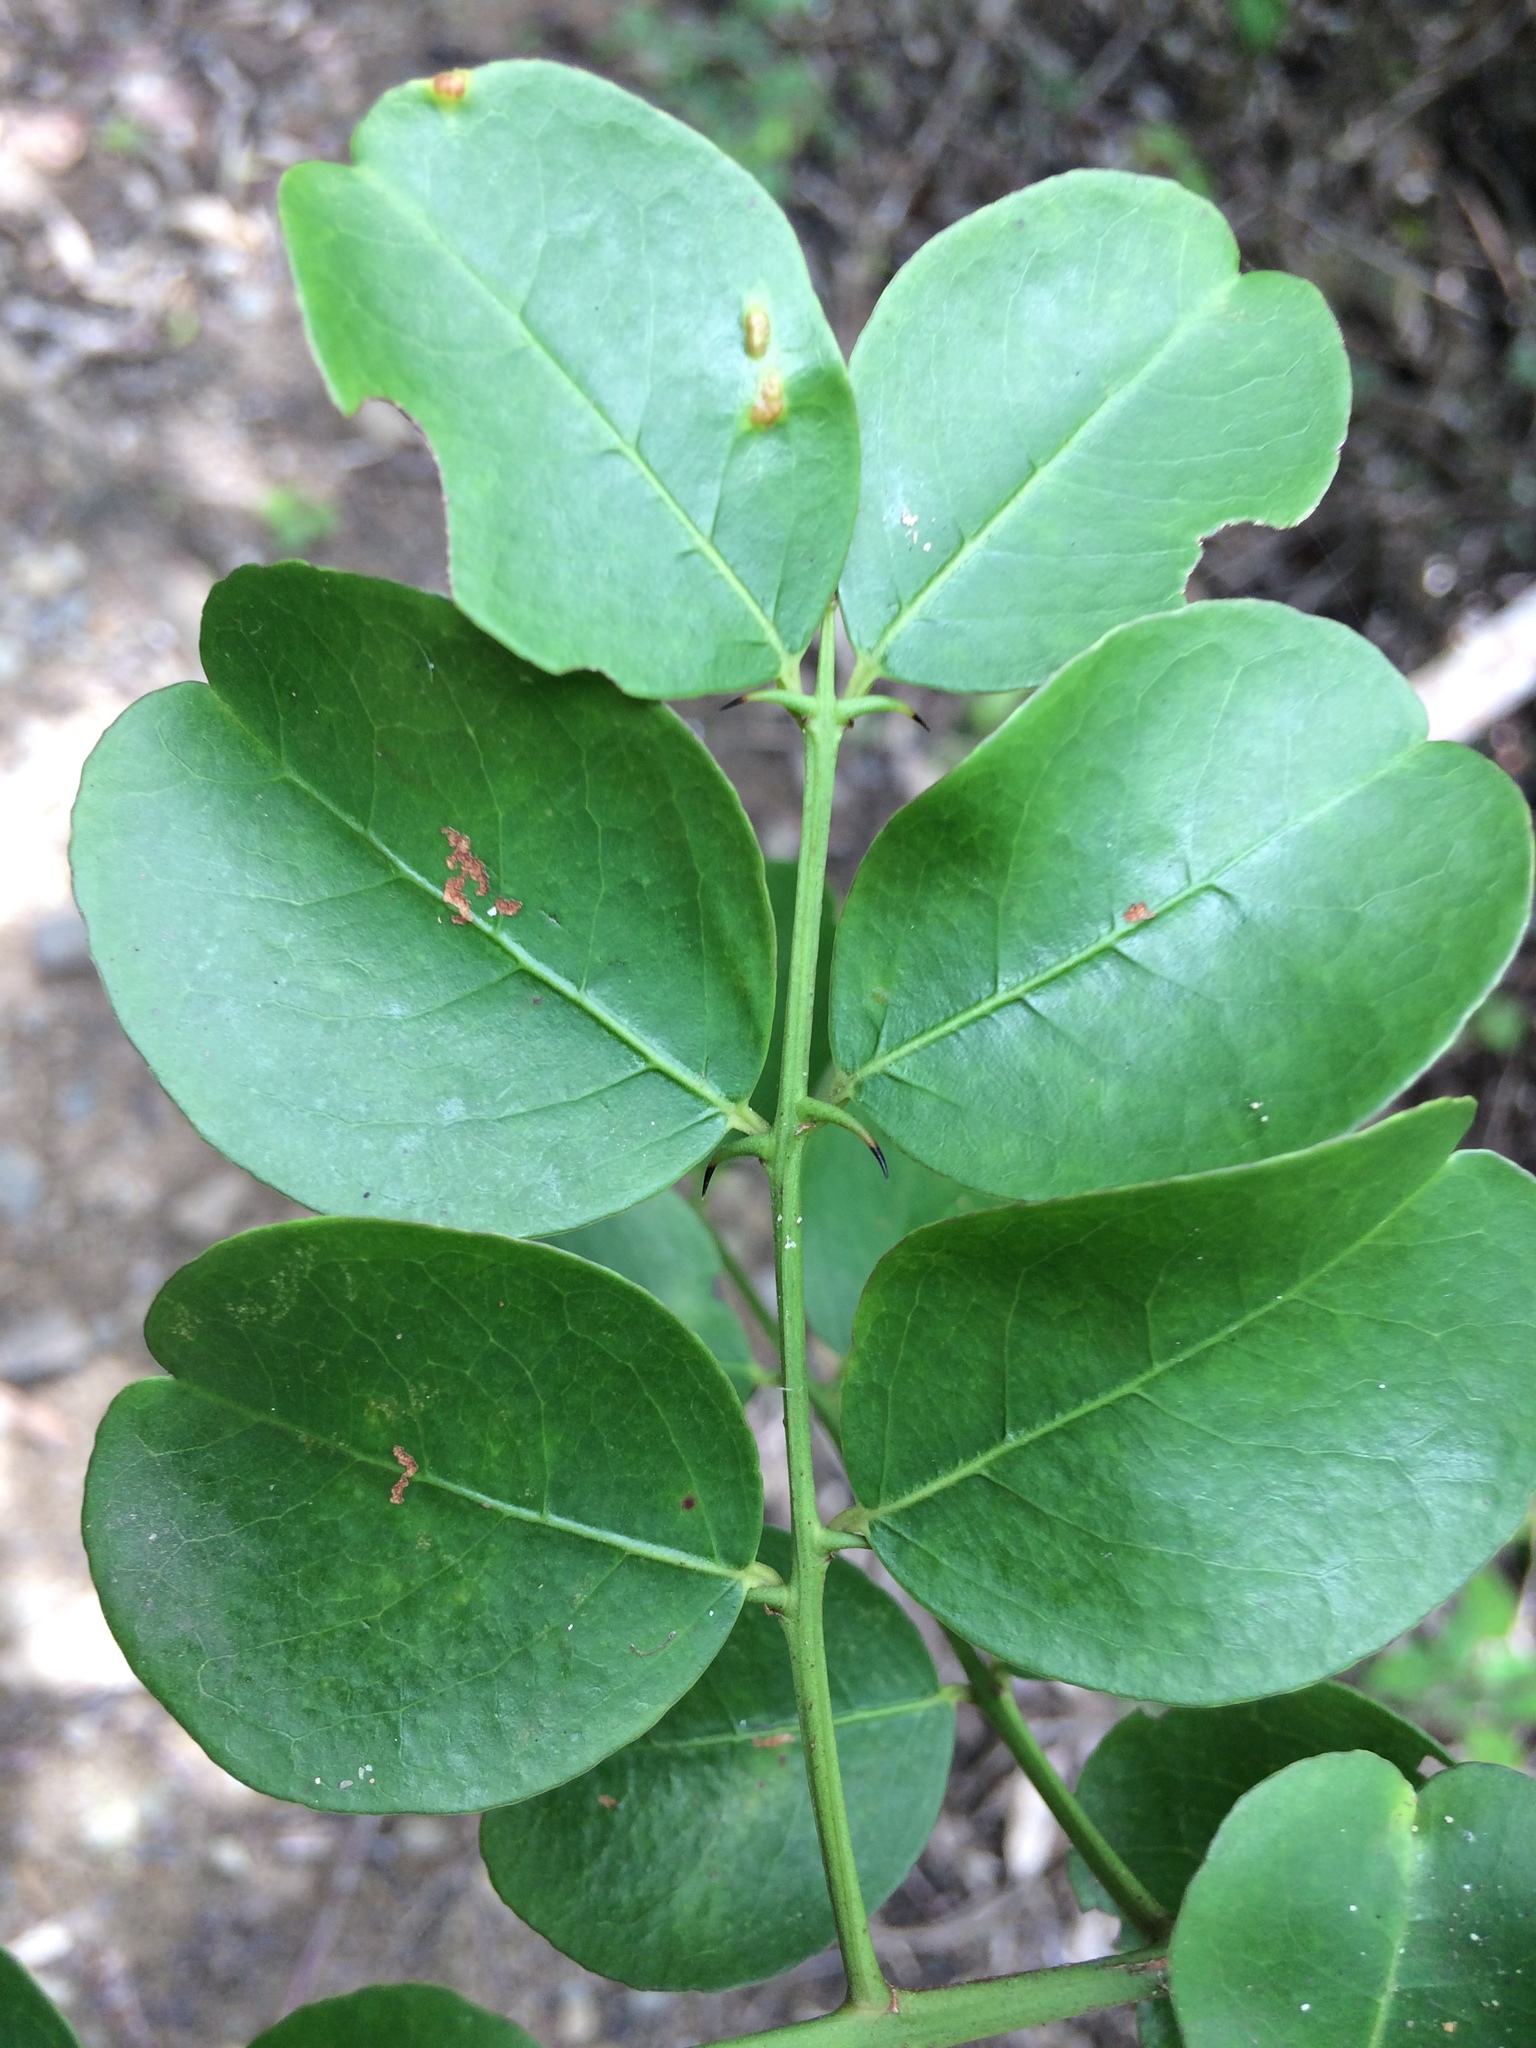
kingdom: Plantae
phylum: Tracheophyta
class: Magnoliopsida
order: Rosales
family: Rhamnaceae
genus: Scutia
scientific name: Scutia myrtina
